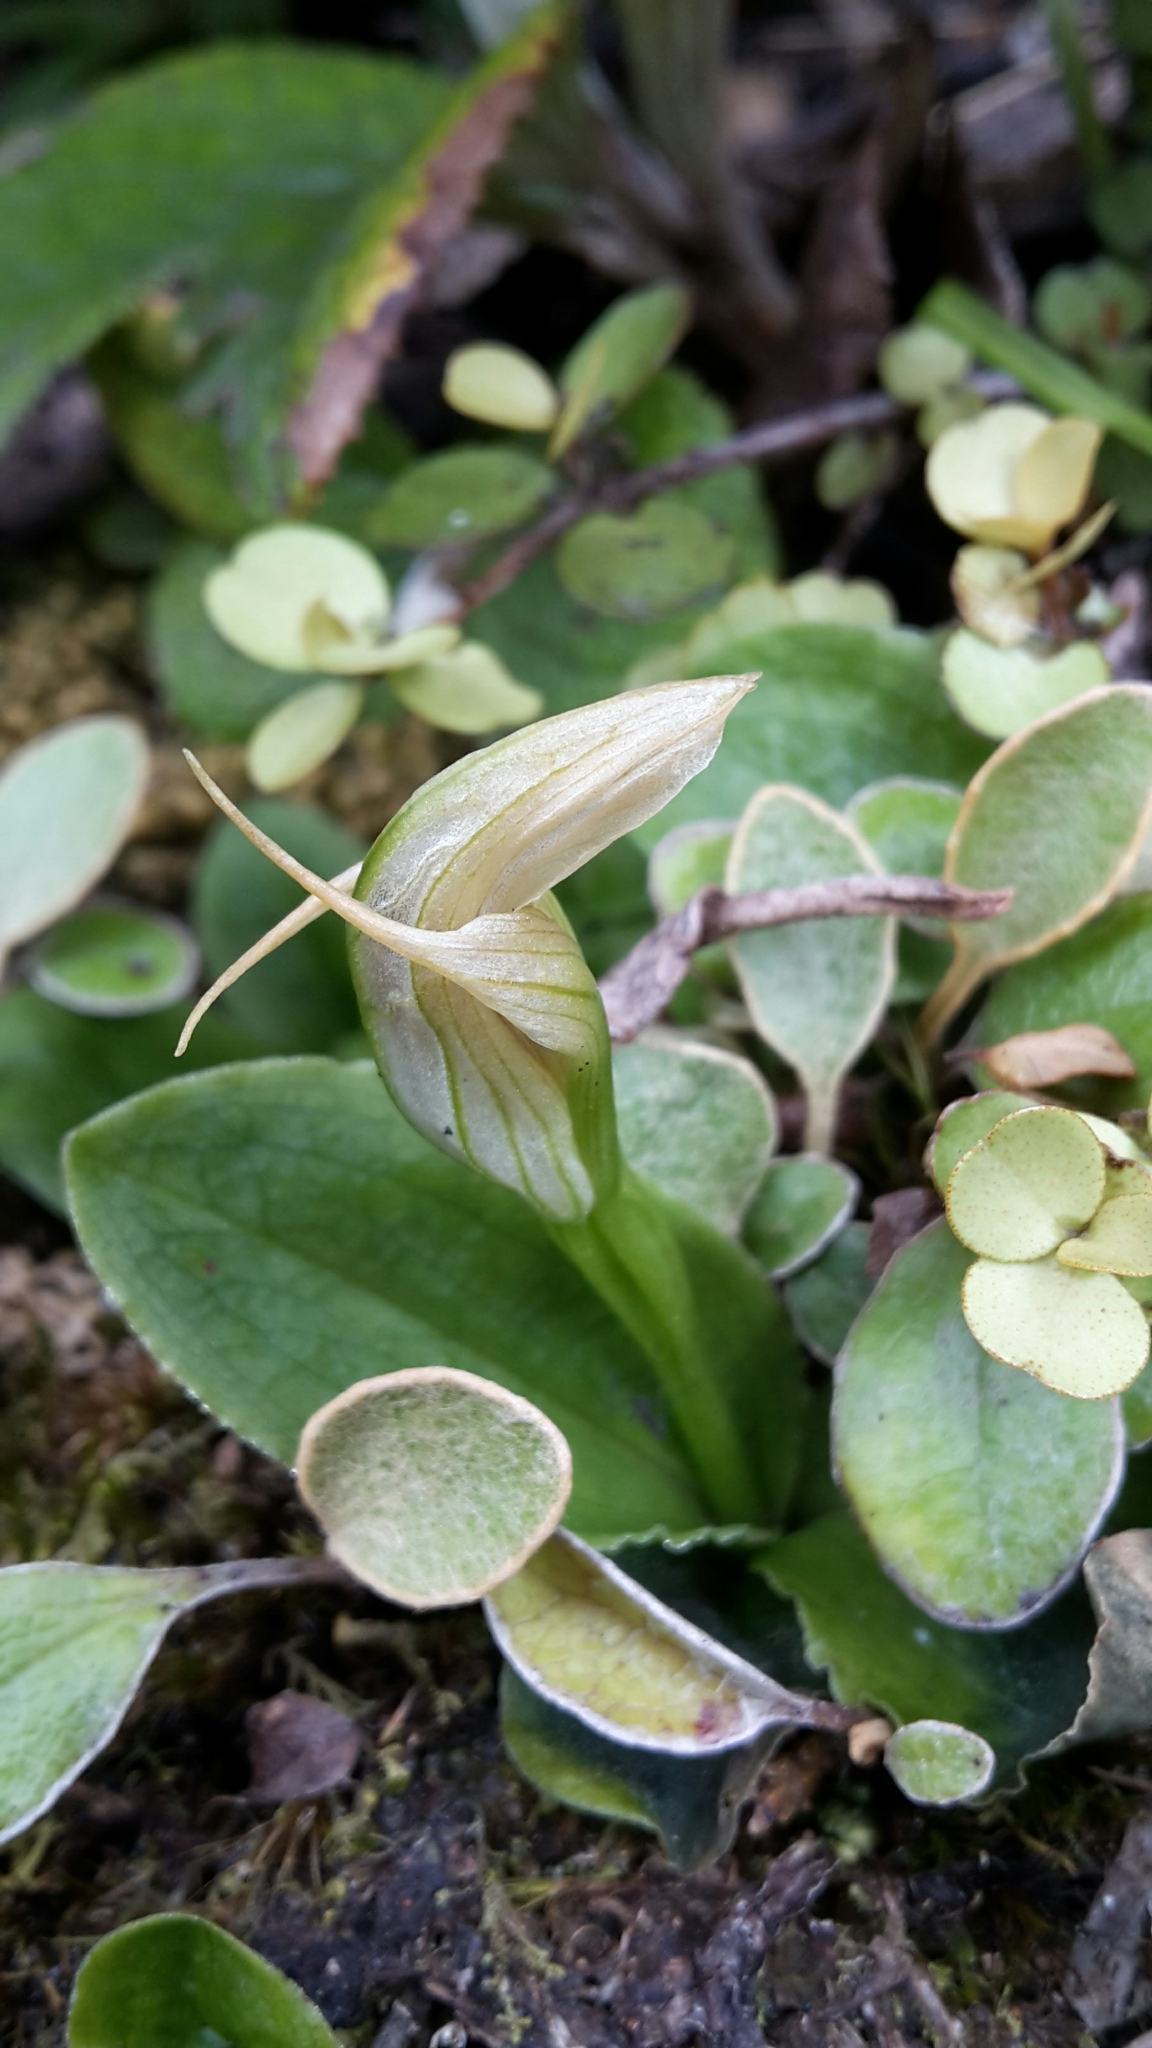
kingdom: Plantae
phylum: Tracheophyta
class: Liliopsida
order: Asparagales
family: Orchidaceae
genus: Pterostylis
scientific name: Pterostylis venosa
